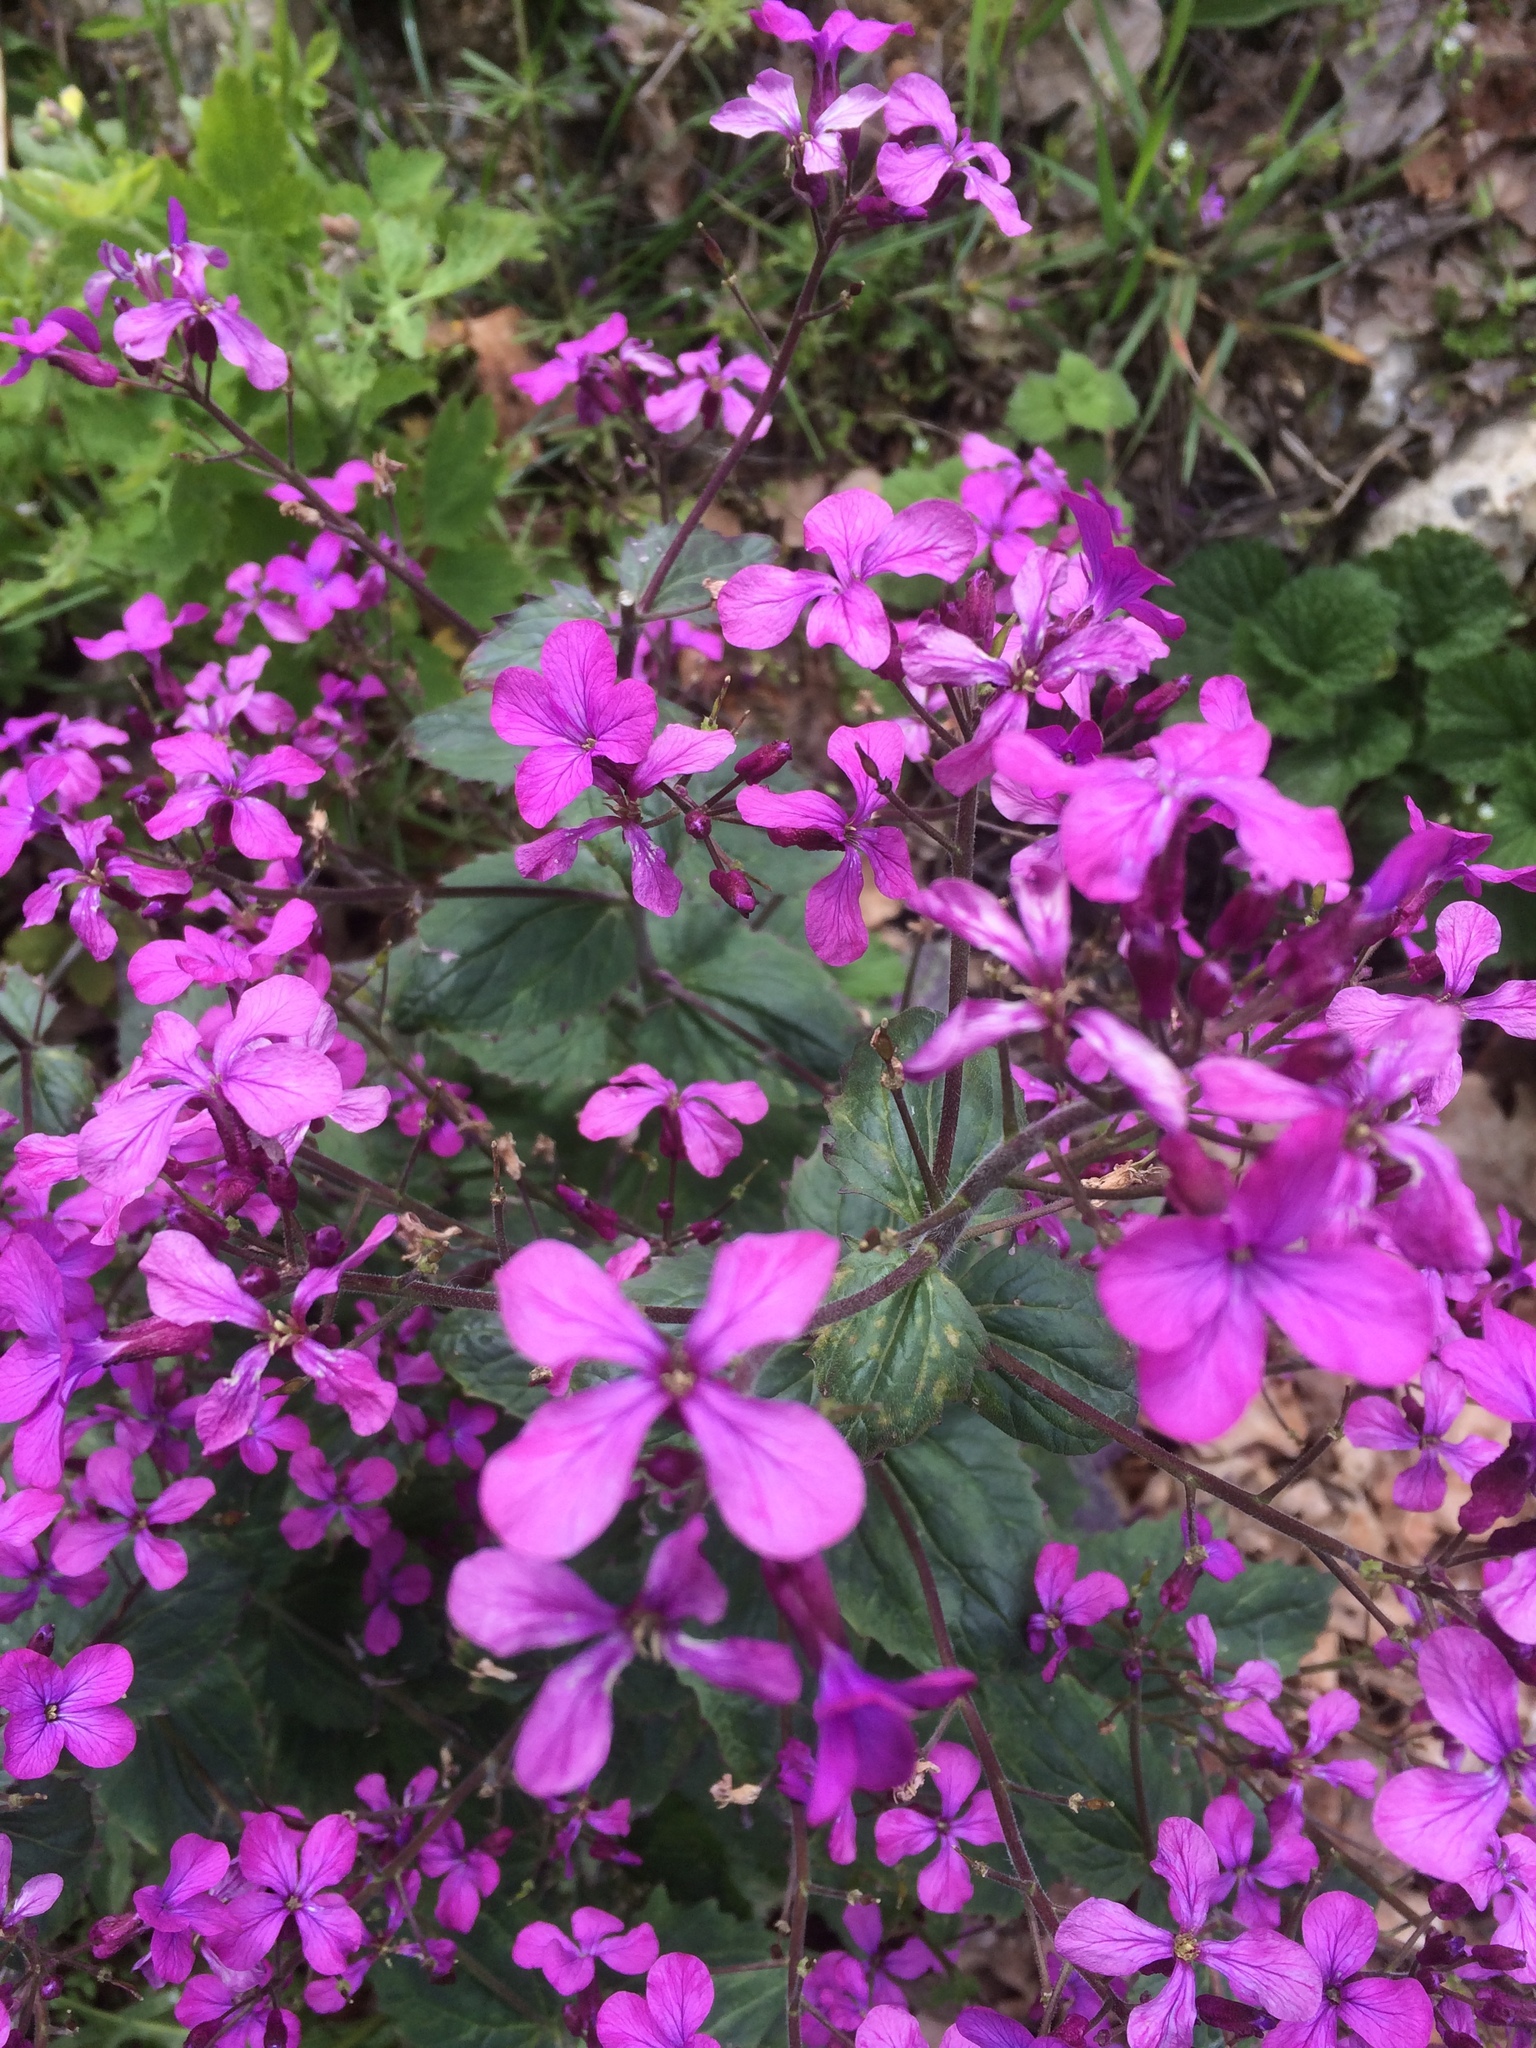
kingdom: Plantae
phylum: Tracheophyta
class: Magnoliopsida
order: Brassicales
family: Brassicaceae
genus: Lunaria
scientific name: Lunaria annua
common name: Honesty
